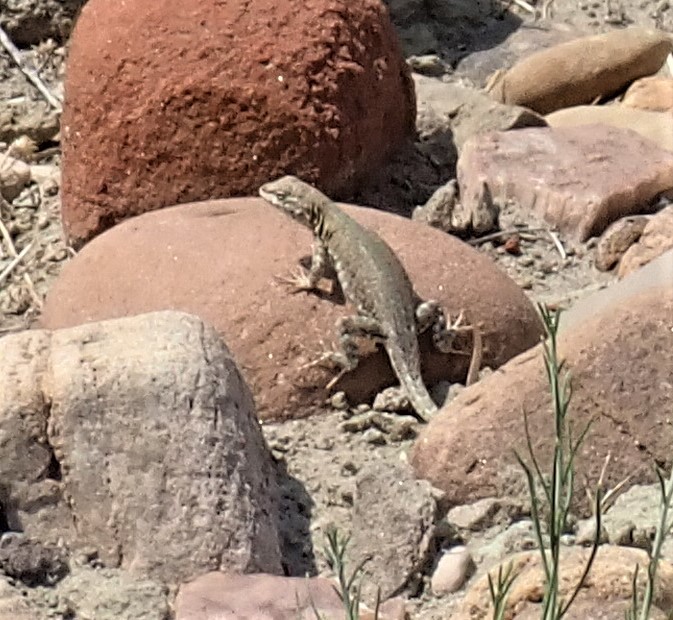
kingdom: Animalia
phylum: Chordata
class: Squamata
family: Phrynosomatidae
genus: Uta
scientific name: Uta stansburiana
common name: Side-blotched lizard
